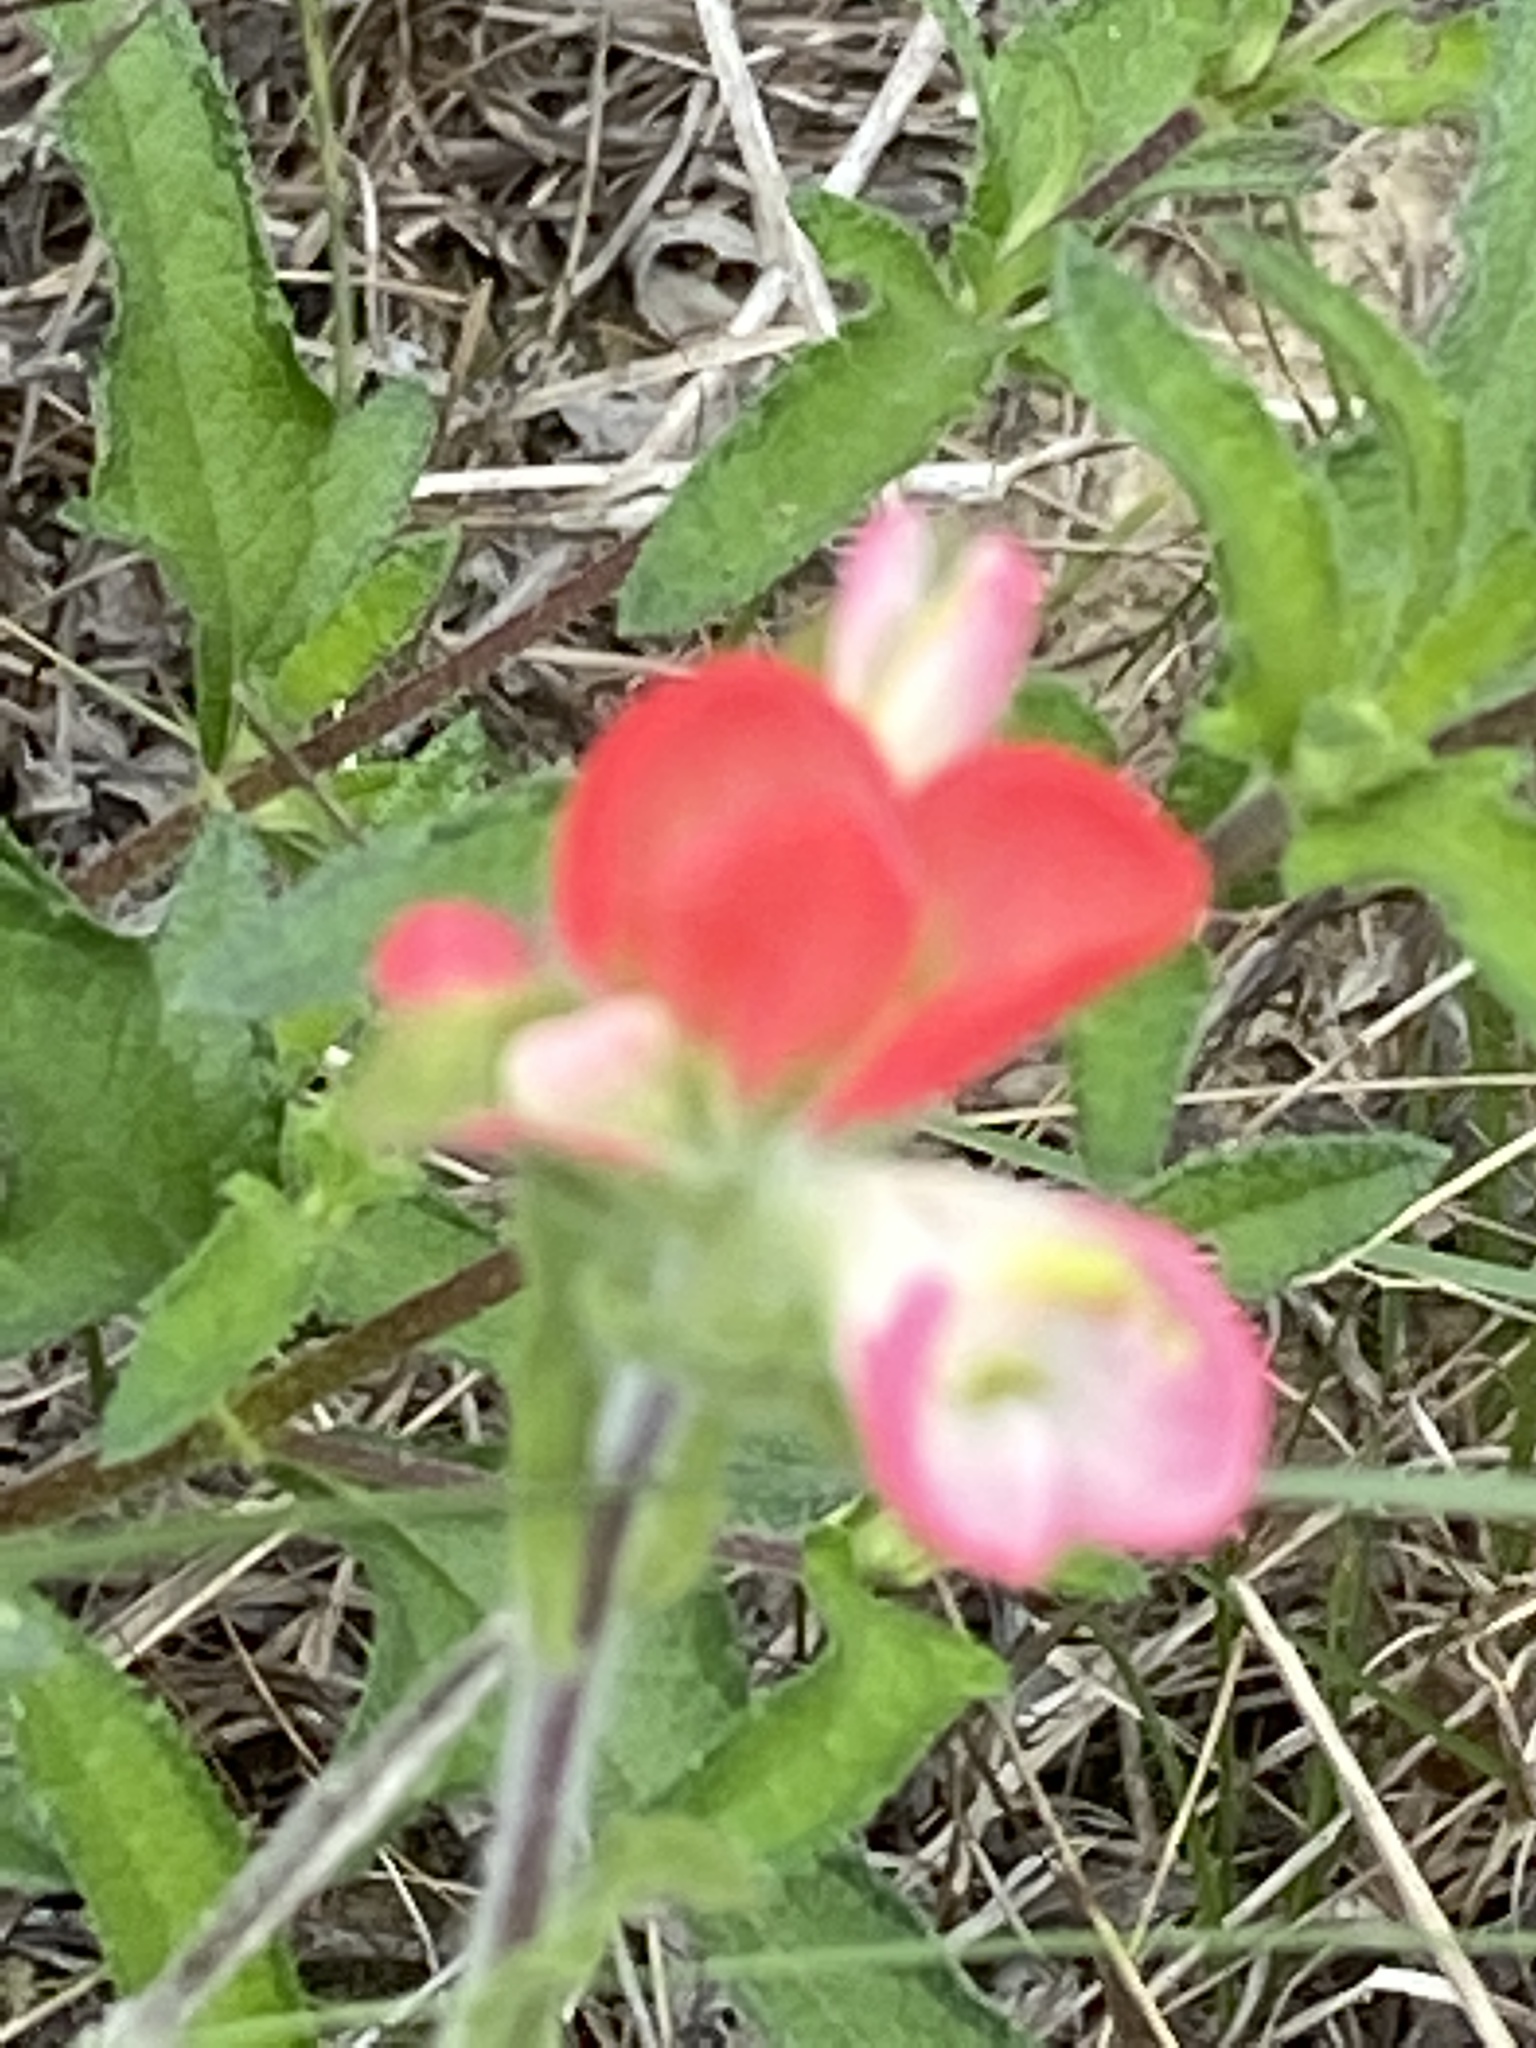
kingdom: Plantae
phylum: Tracheophyta
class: Magnoliopsida
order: Lamiales
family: Orobanchaceae
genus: Castilleja
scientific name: Castilleja indivisa
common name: Texas paintbrush
